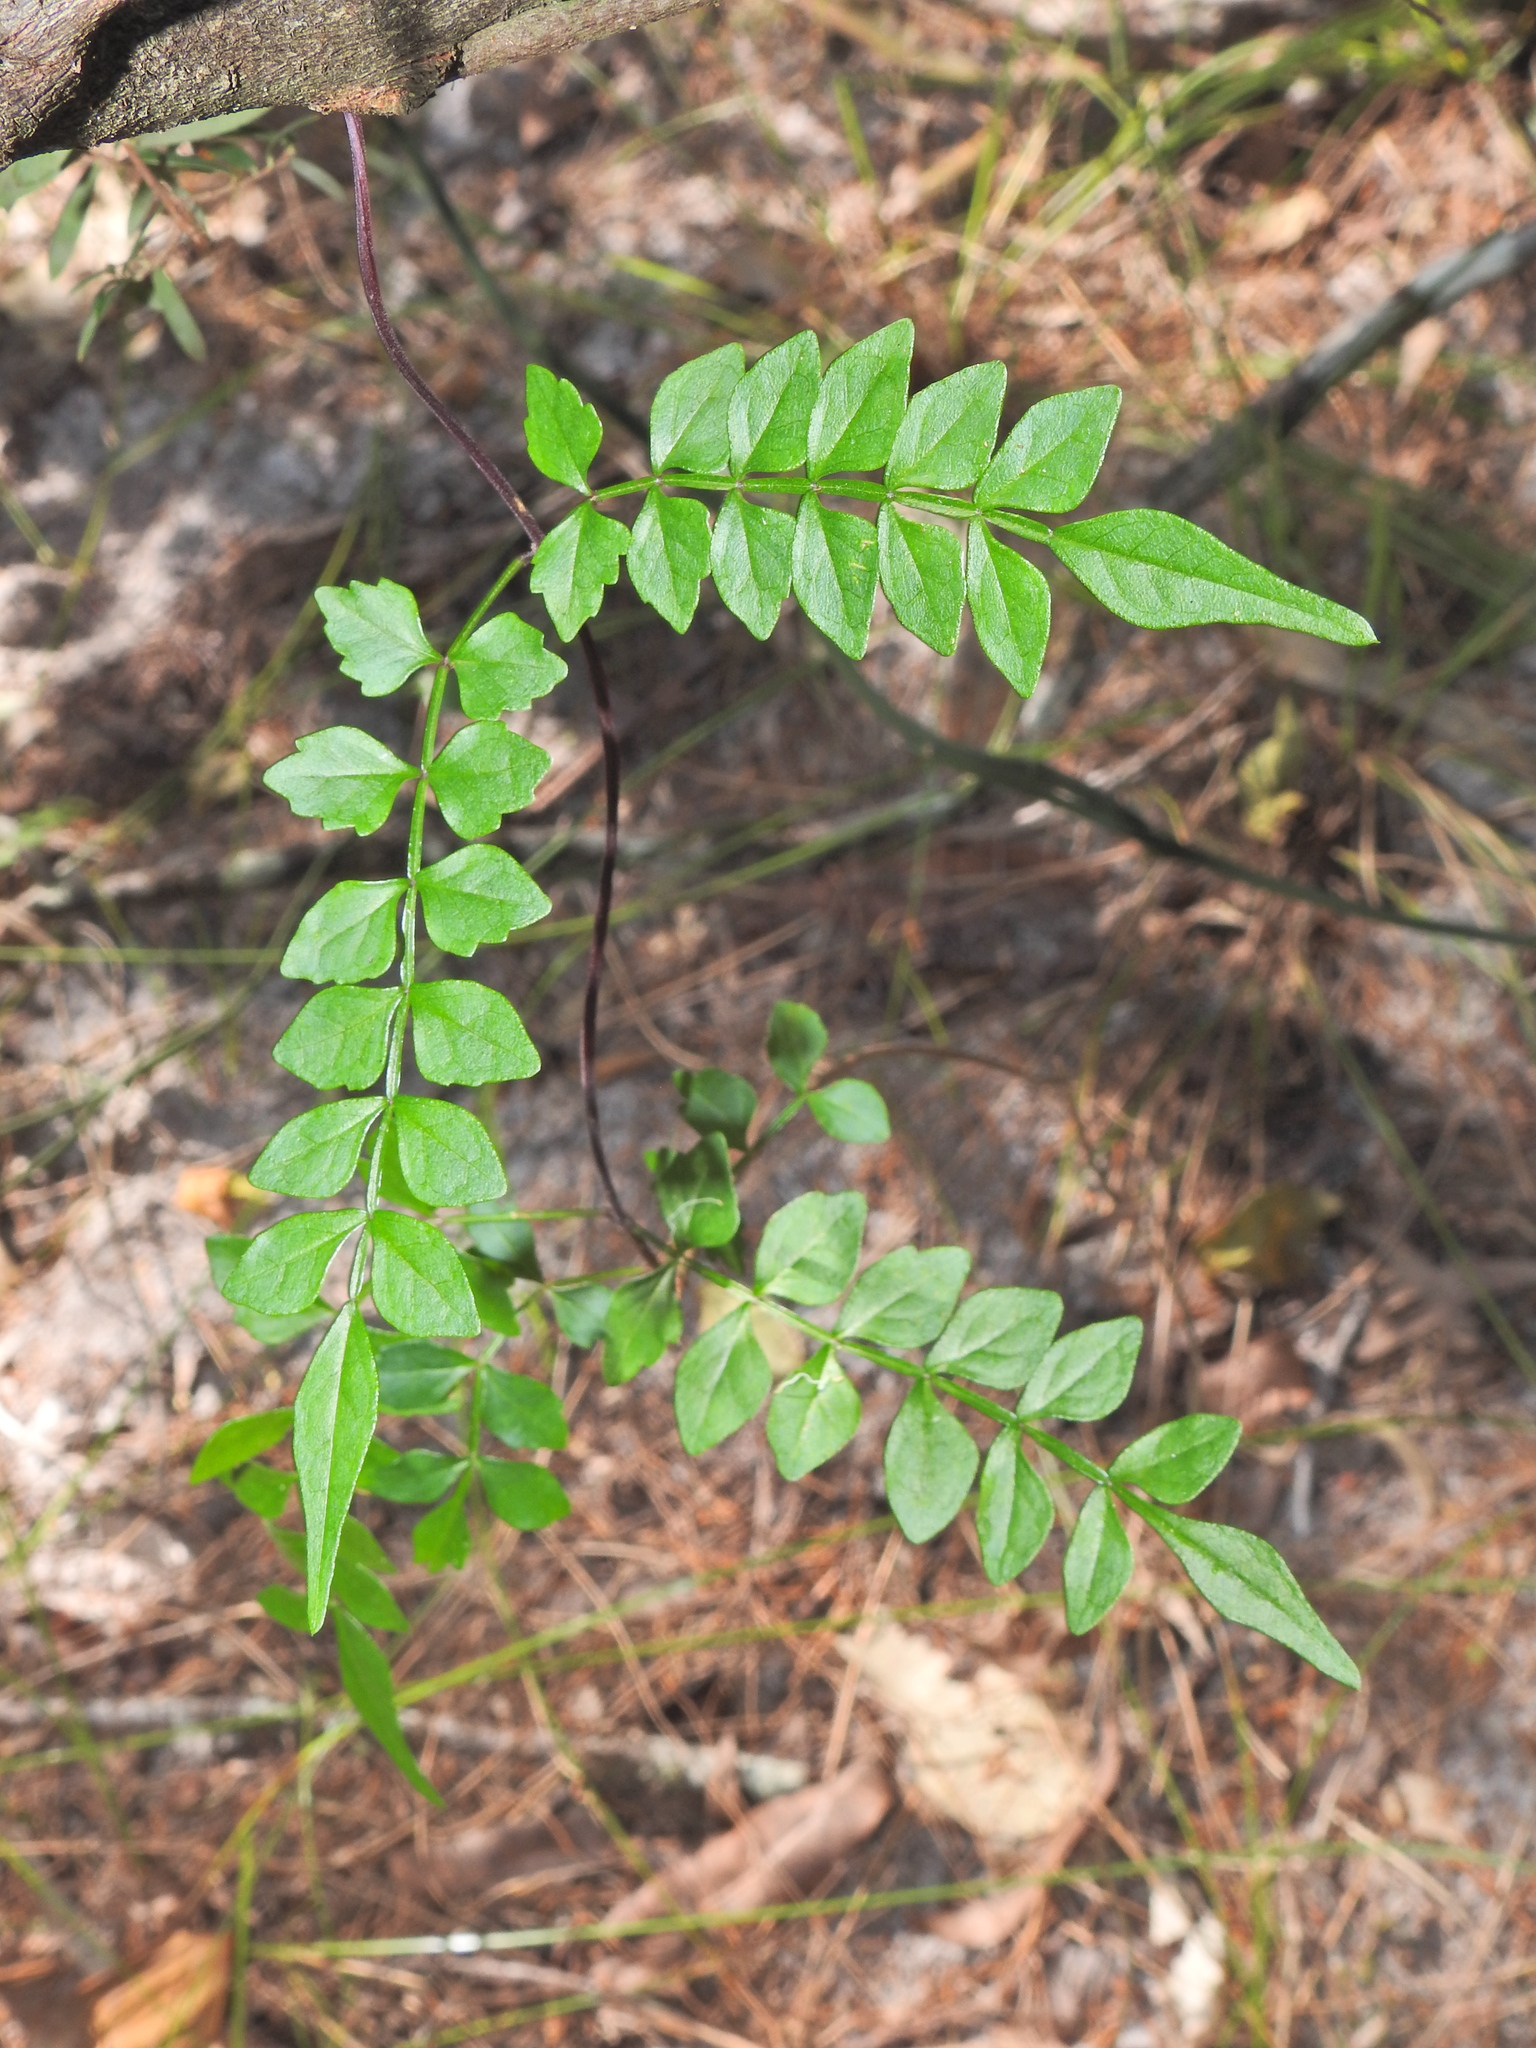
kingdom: Plantae
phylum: Tracheophyta
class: Magnoliopsida
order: Lamiales
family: Bignoniaceae
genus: Pandorea
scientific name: Pandorea pandorana
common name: Wonga-wonga-vine
